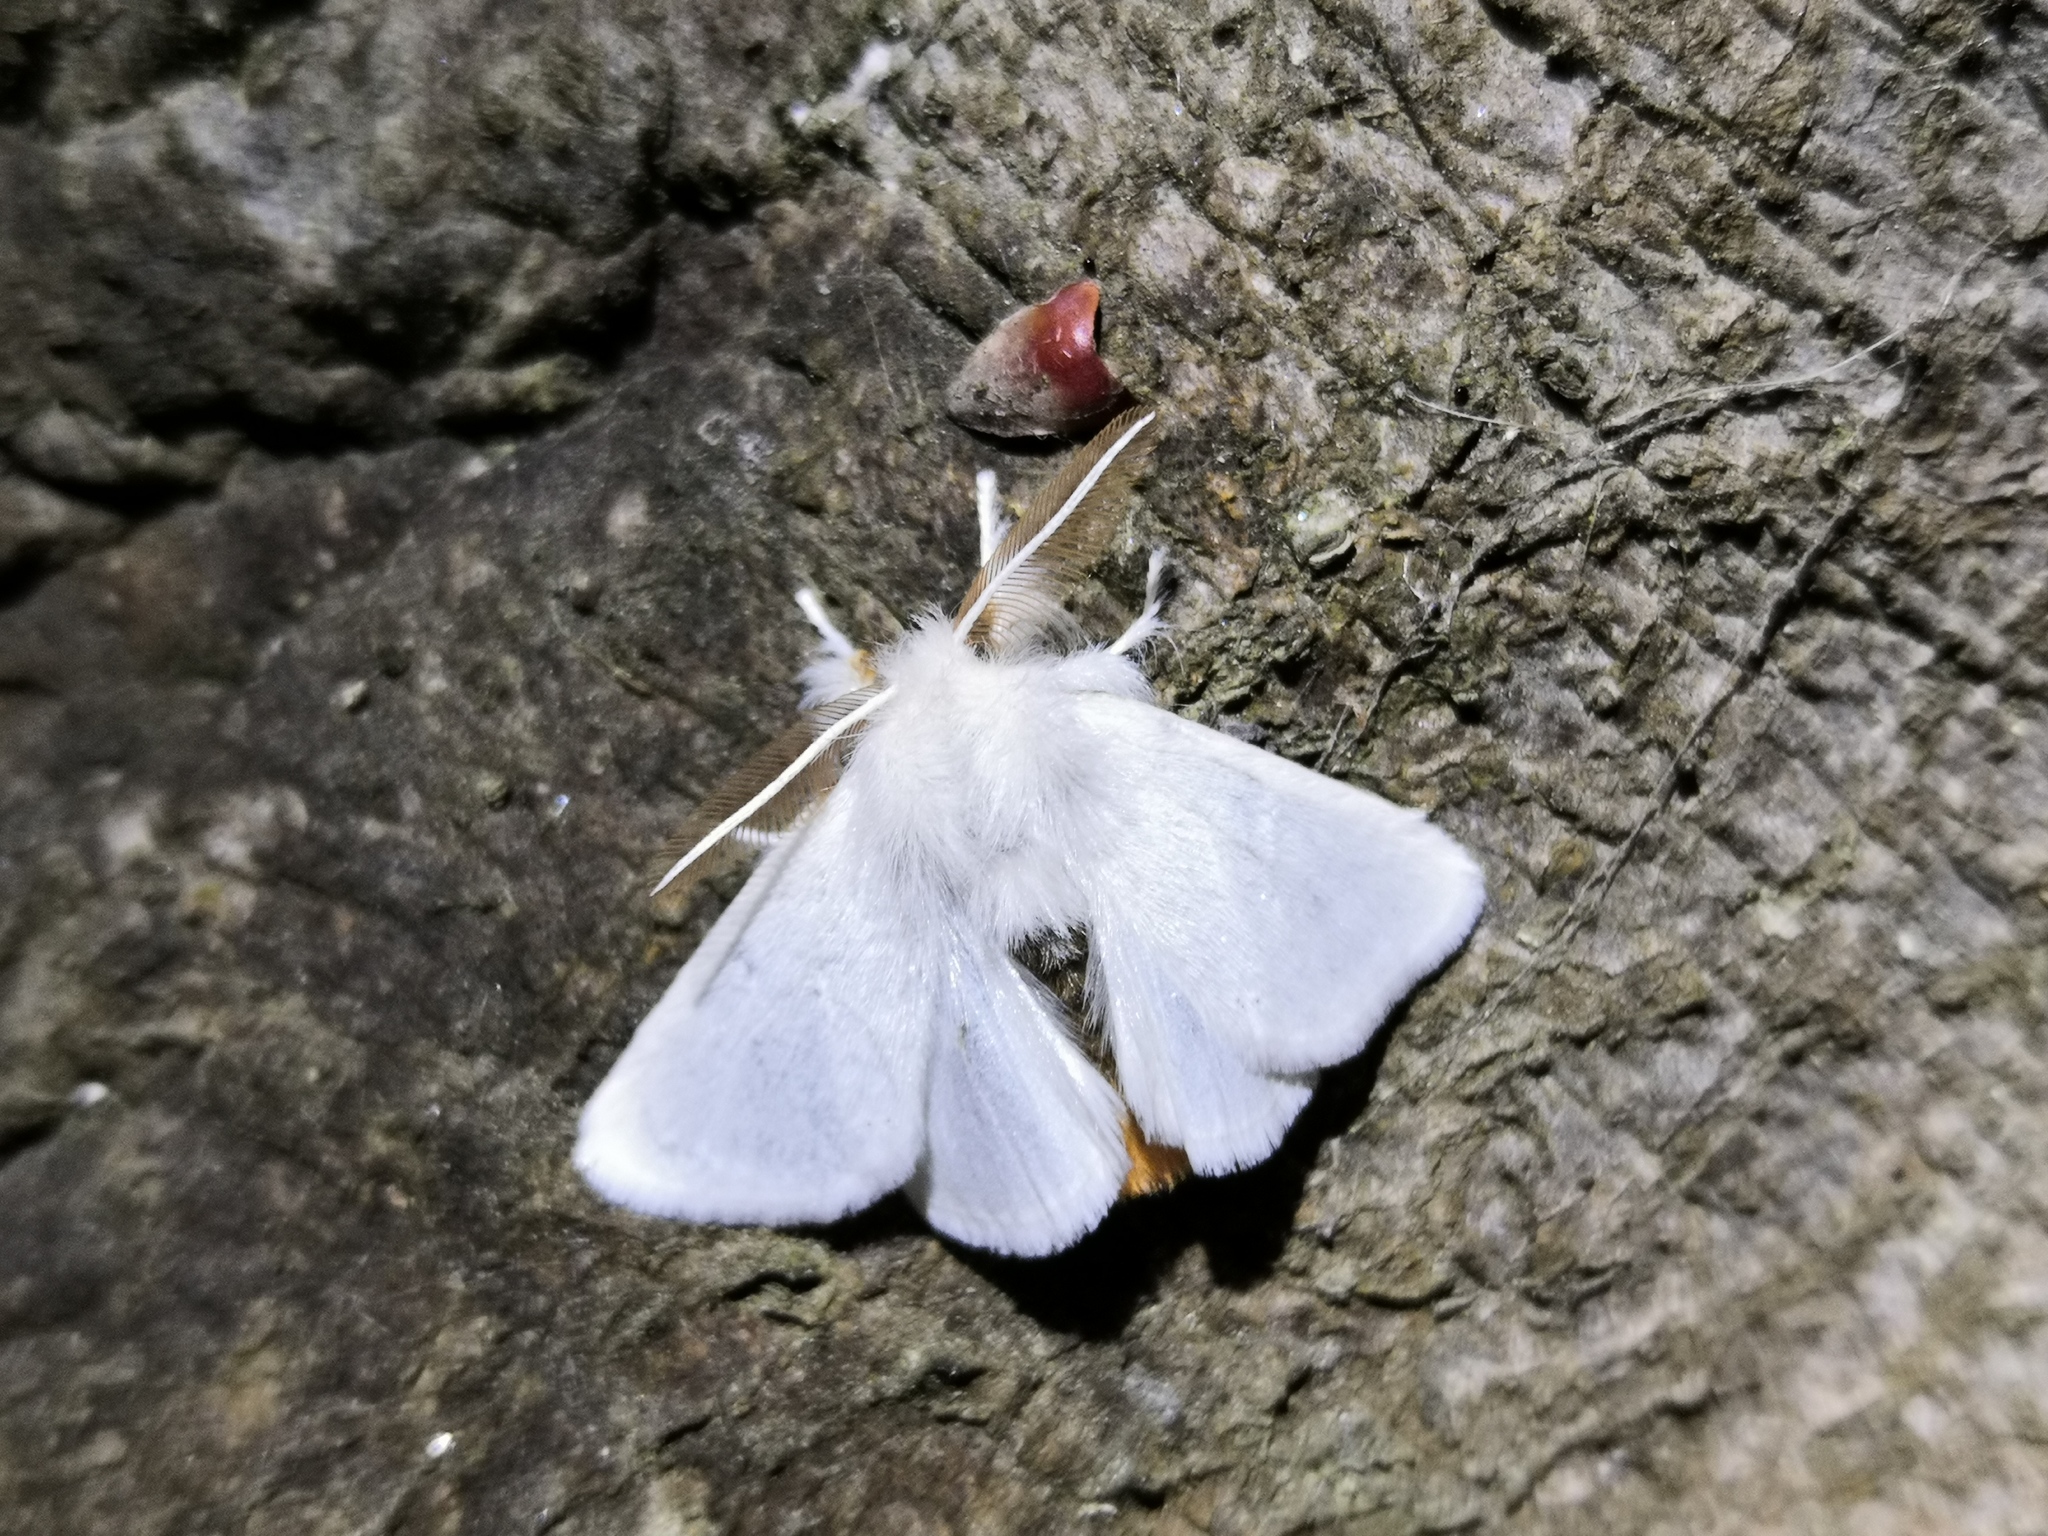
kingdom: Animalia
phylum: Arthropoda
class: Insecta
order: Lepidoptera
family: Erebidae
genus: Euproctis
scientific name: Euproctis chrysorrhoea
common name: Brown-tail
